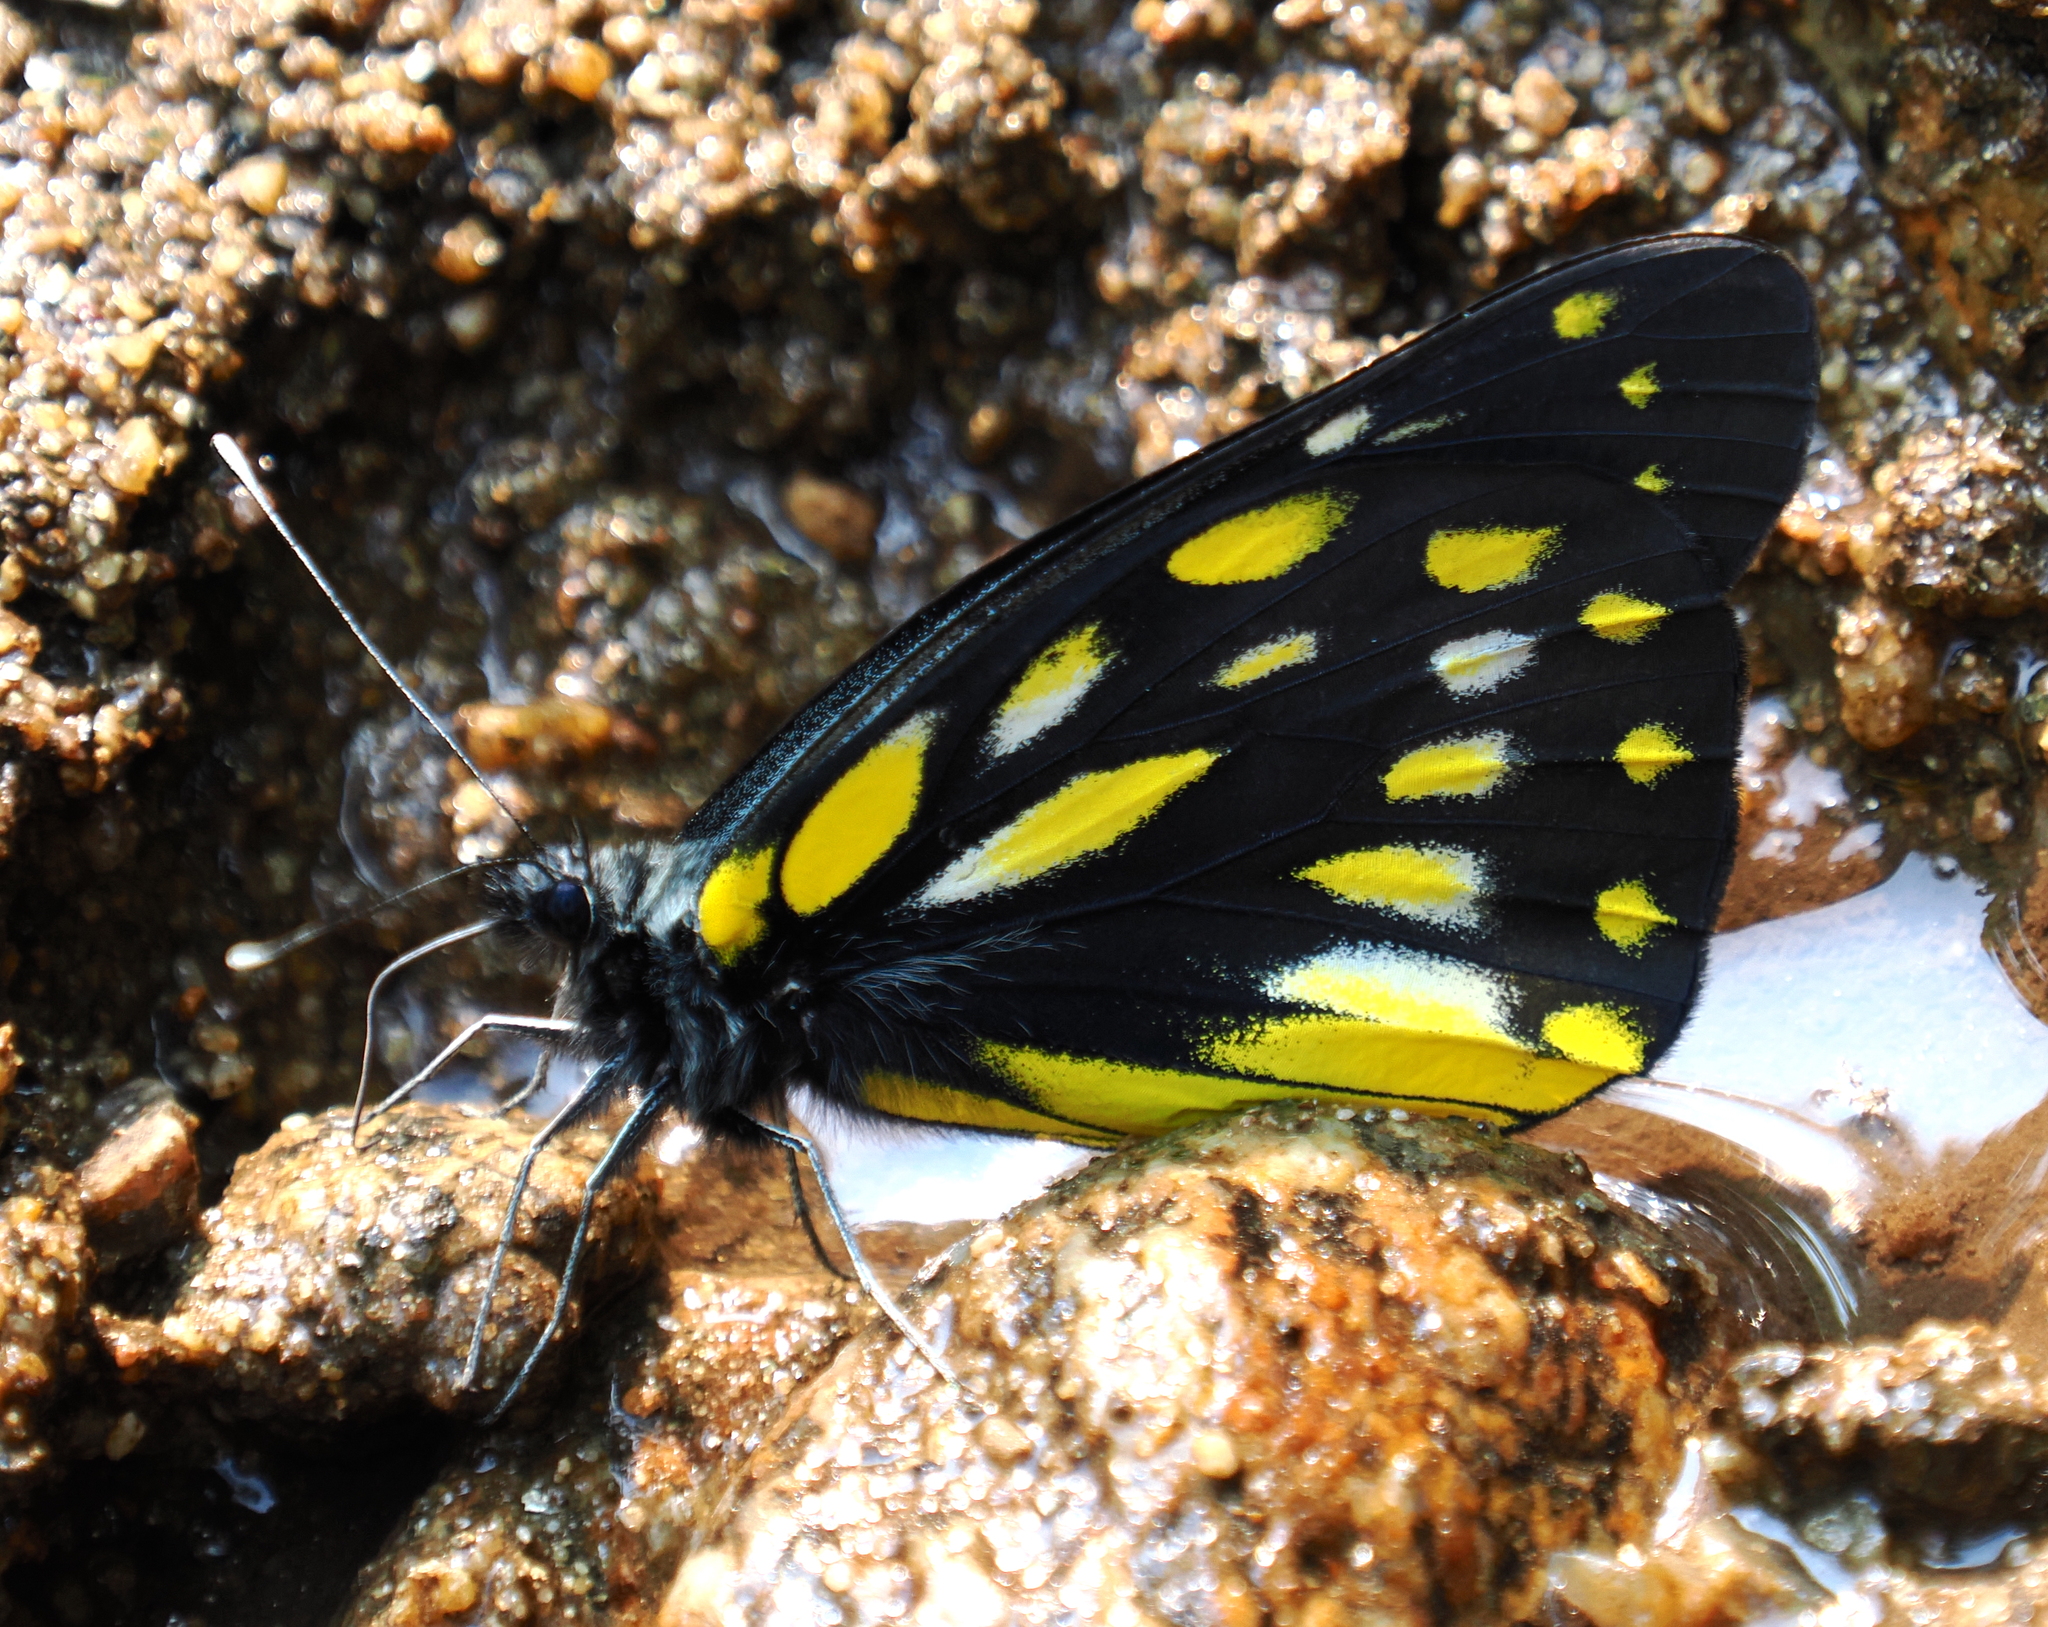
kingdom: Animalia
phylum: Arthropoda
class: Insecta
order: Lepidoptera
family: Pieridae
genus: Delias
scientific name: Delias berinda
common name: Dark jezebel
